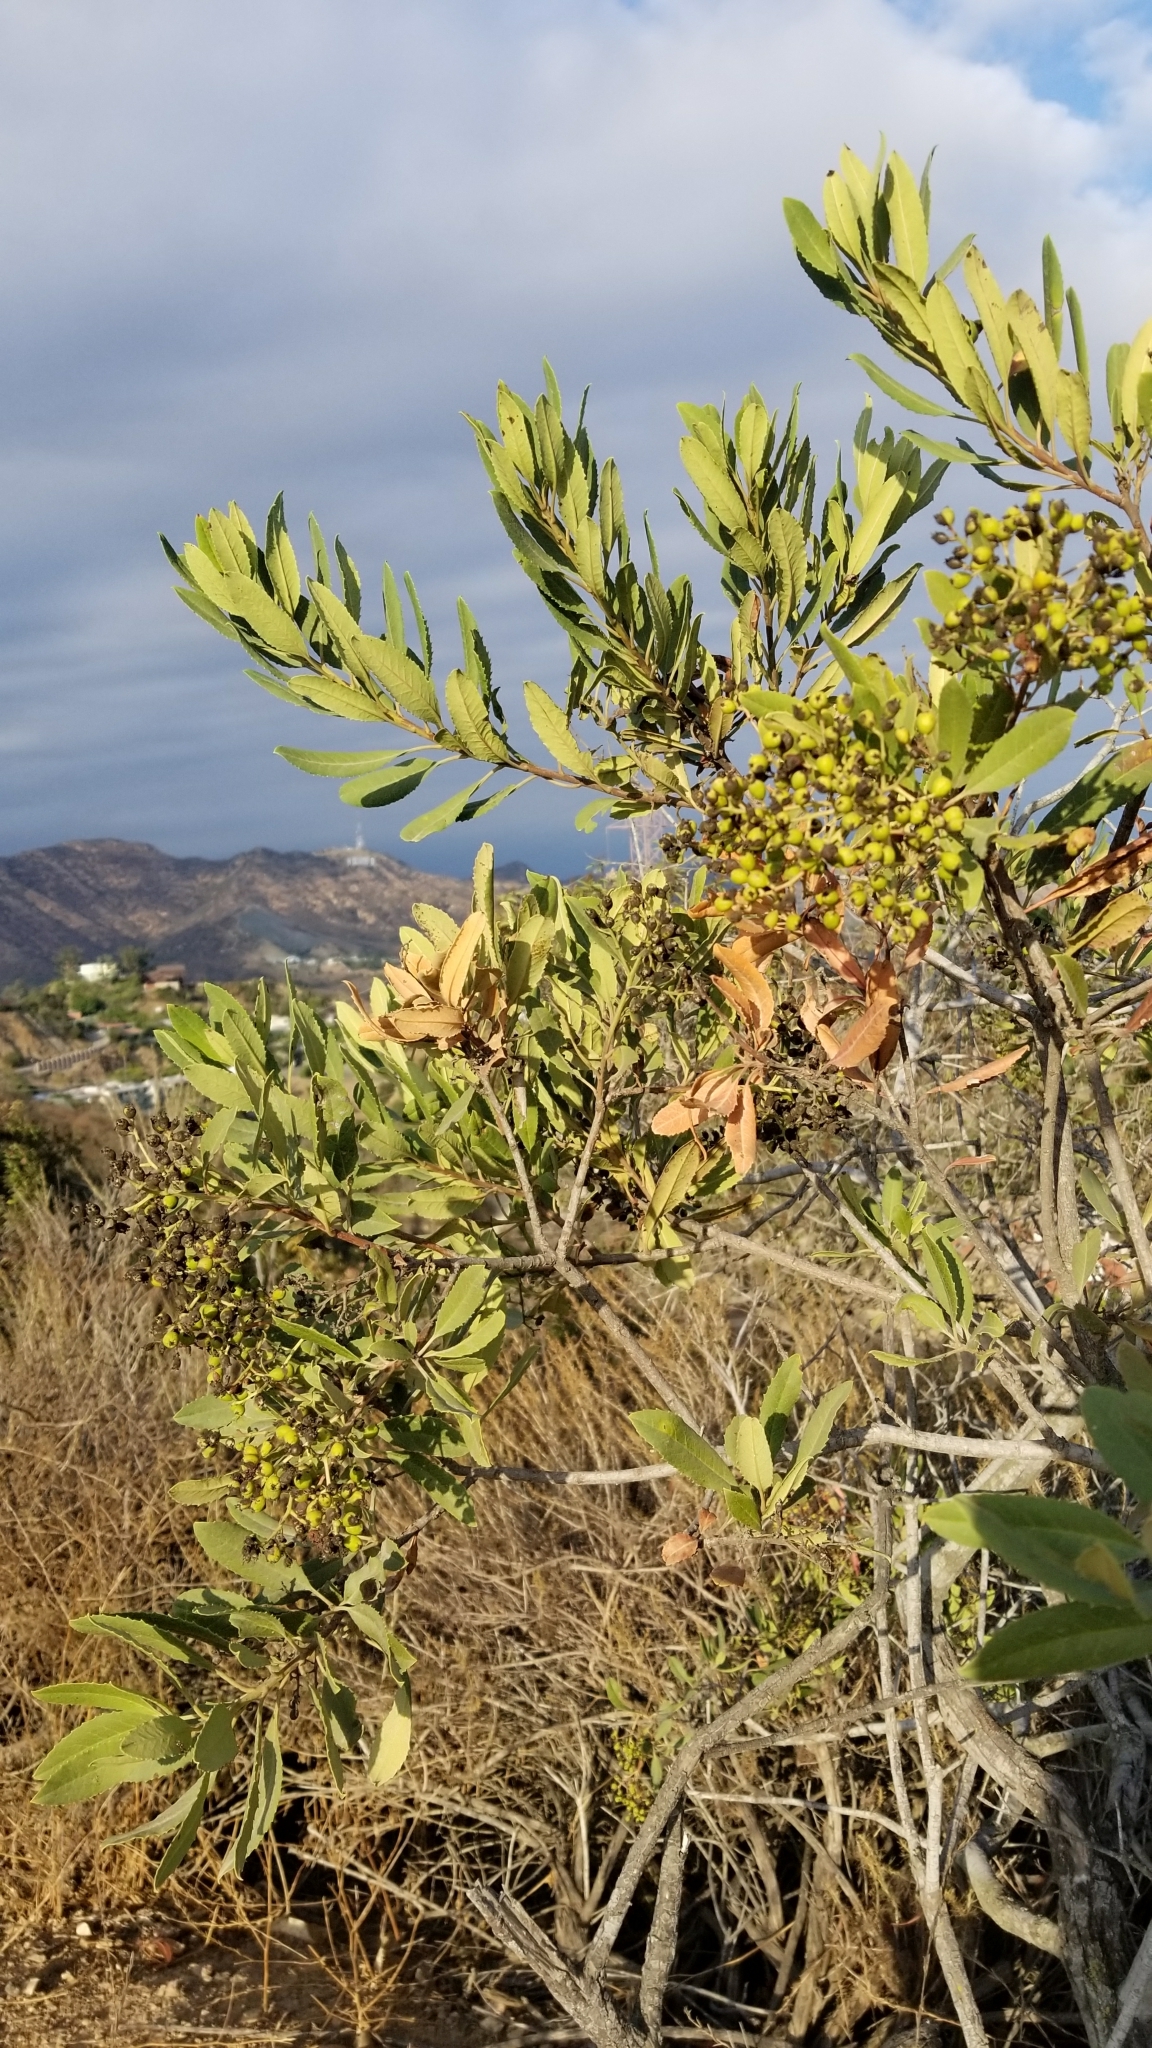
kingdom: Plantae
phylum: Tracheophyta
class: Magnoliopsida
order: Rosales
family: Rosaceae
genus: Heteromeles
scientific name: Heteromeles arbutifolia
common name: California-holly
